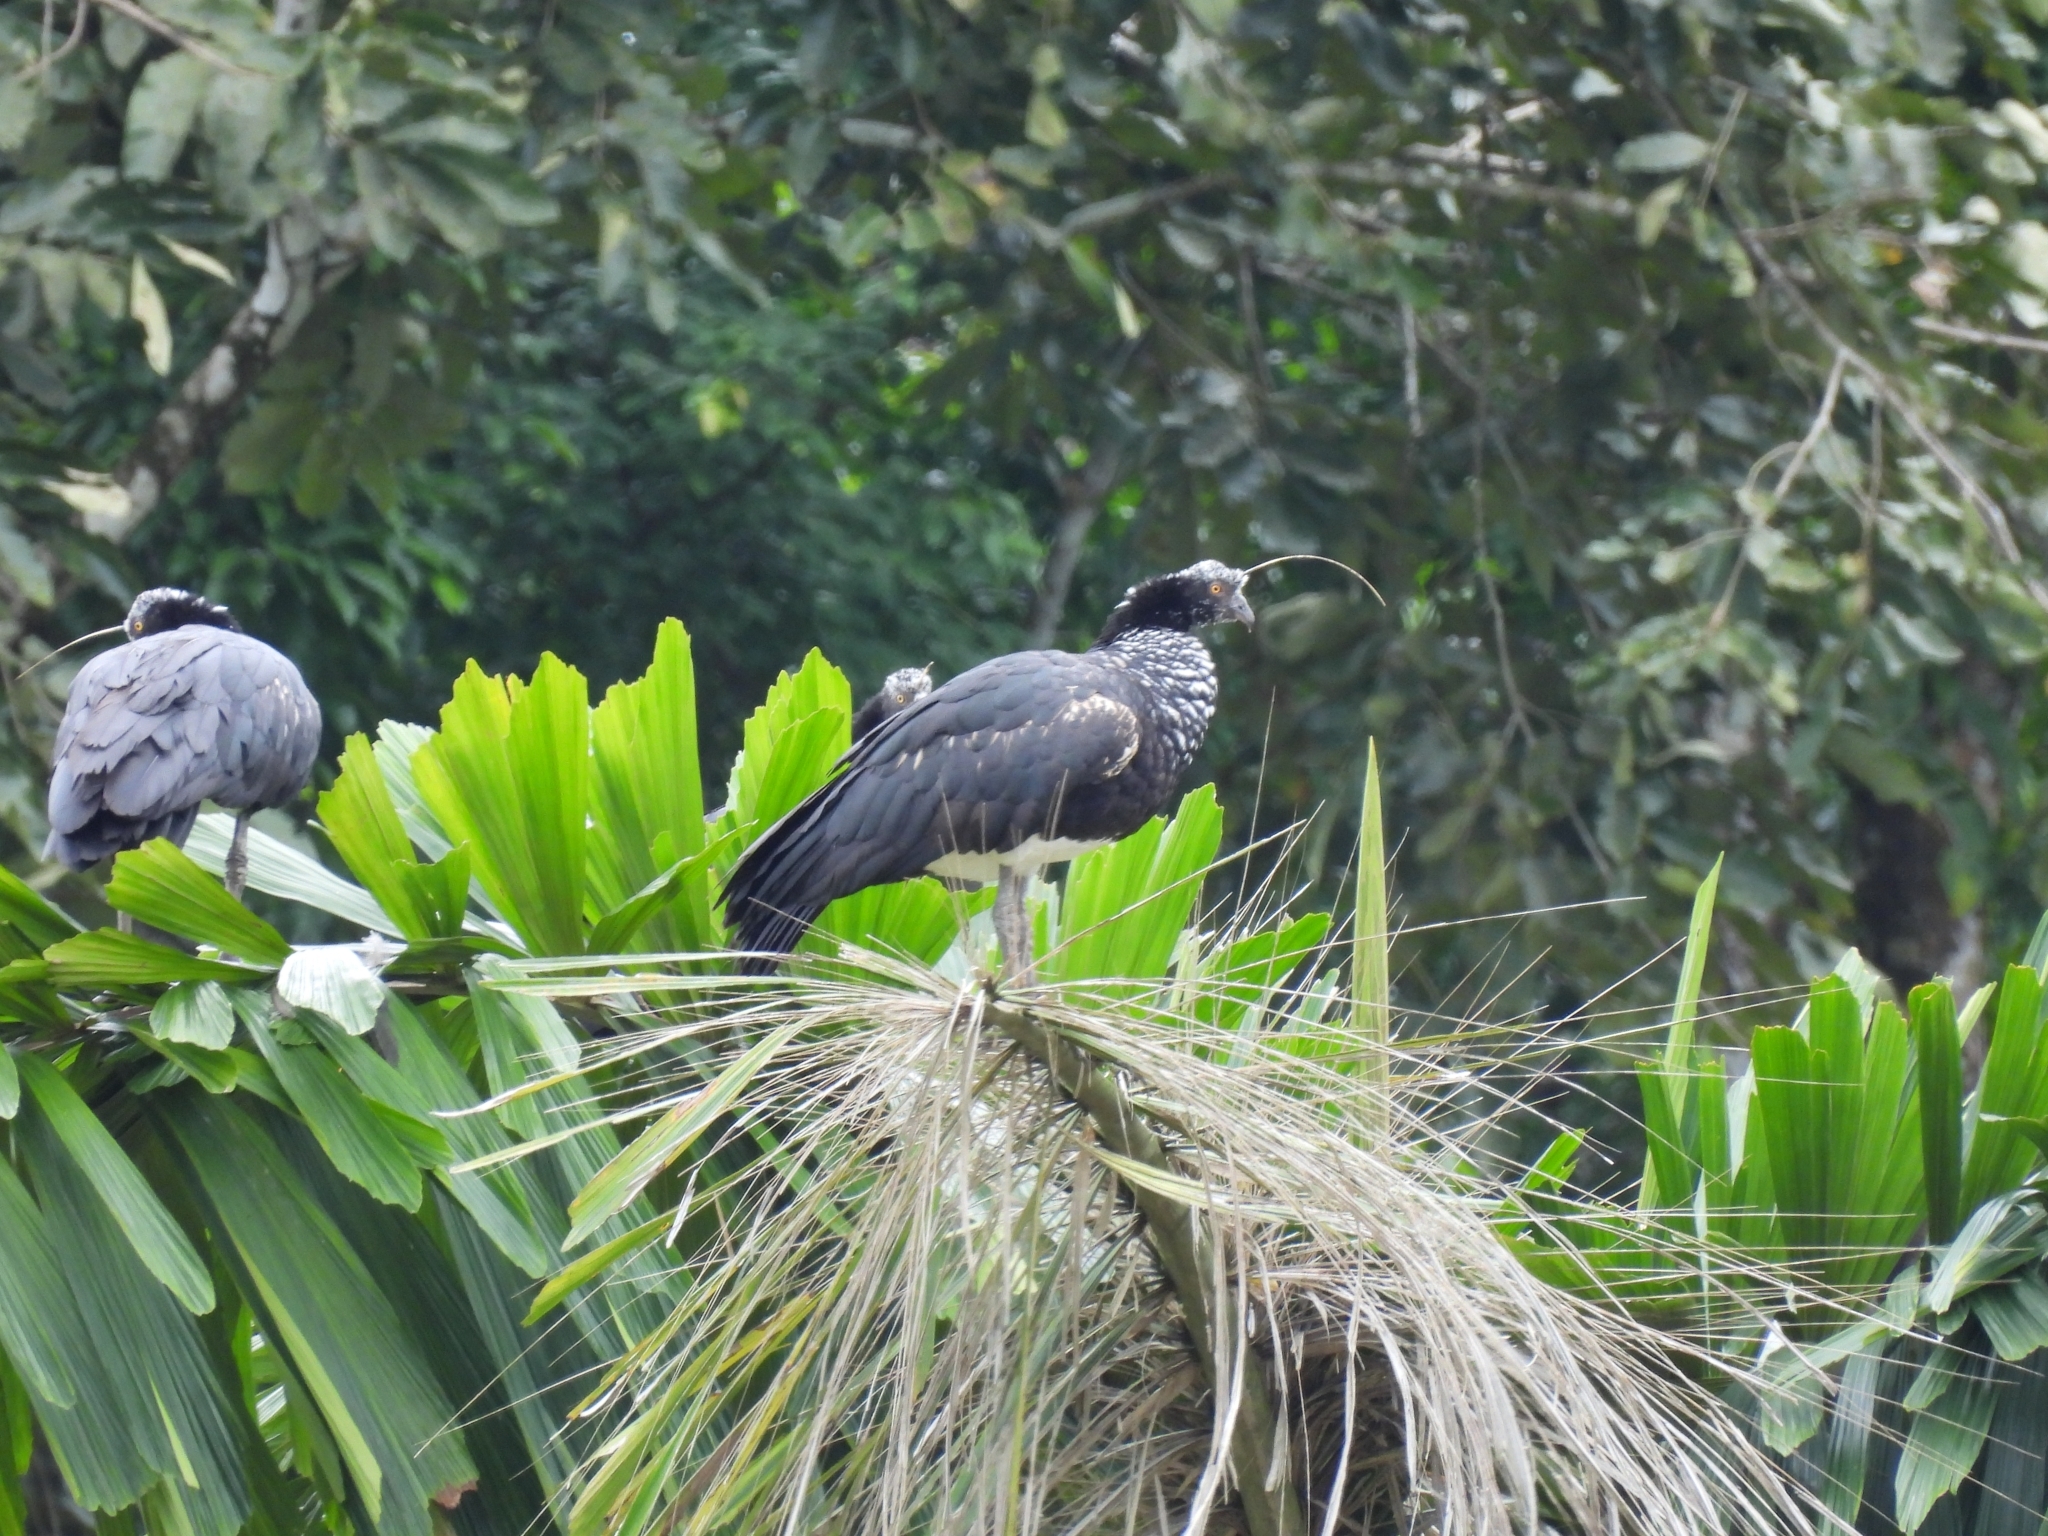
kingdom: Animalia
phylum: Chordata
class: Aves
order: Anseriformes
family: Anhimidae
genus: Anhima
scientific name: Anhima cornuta
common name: Horned screamer
